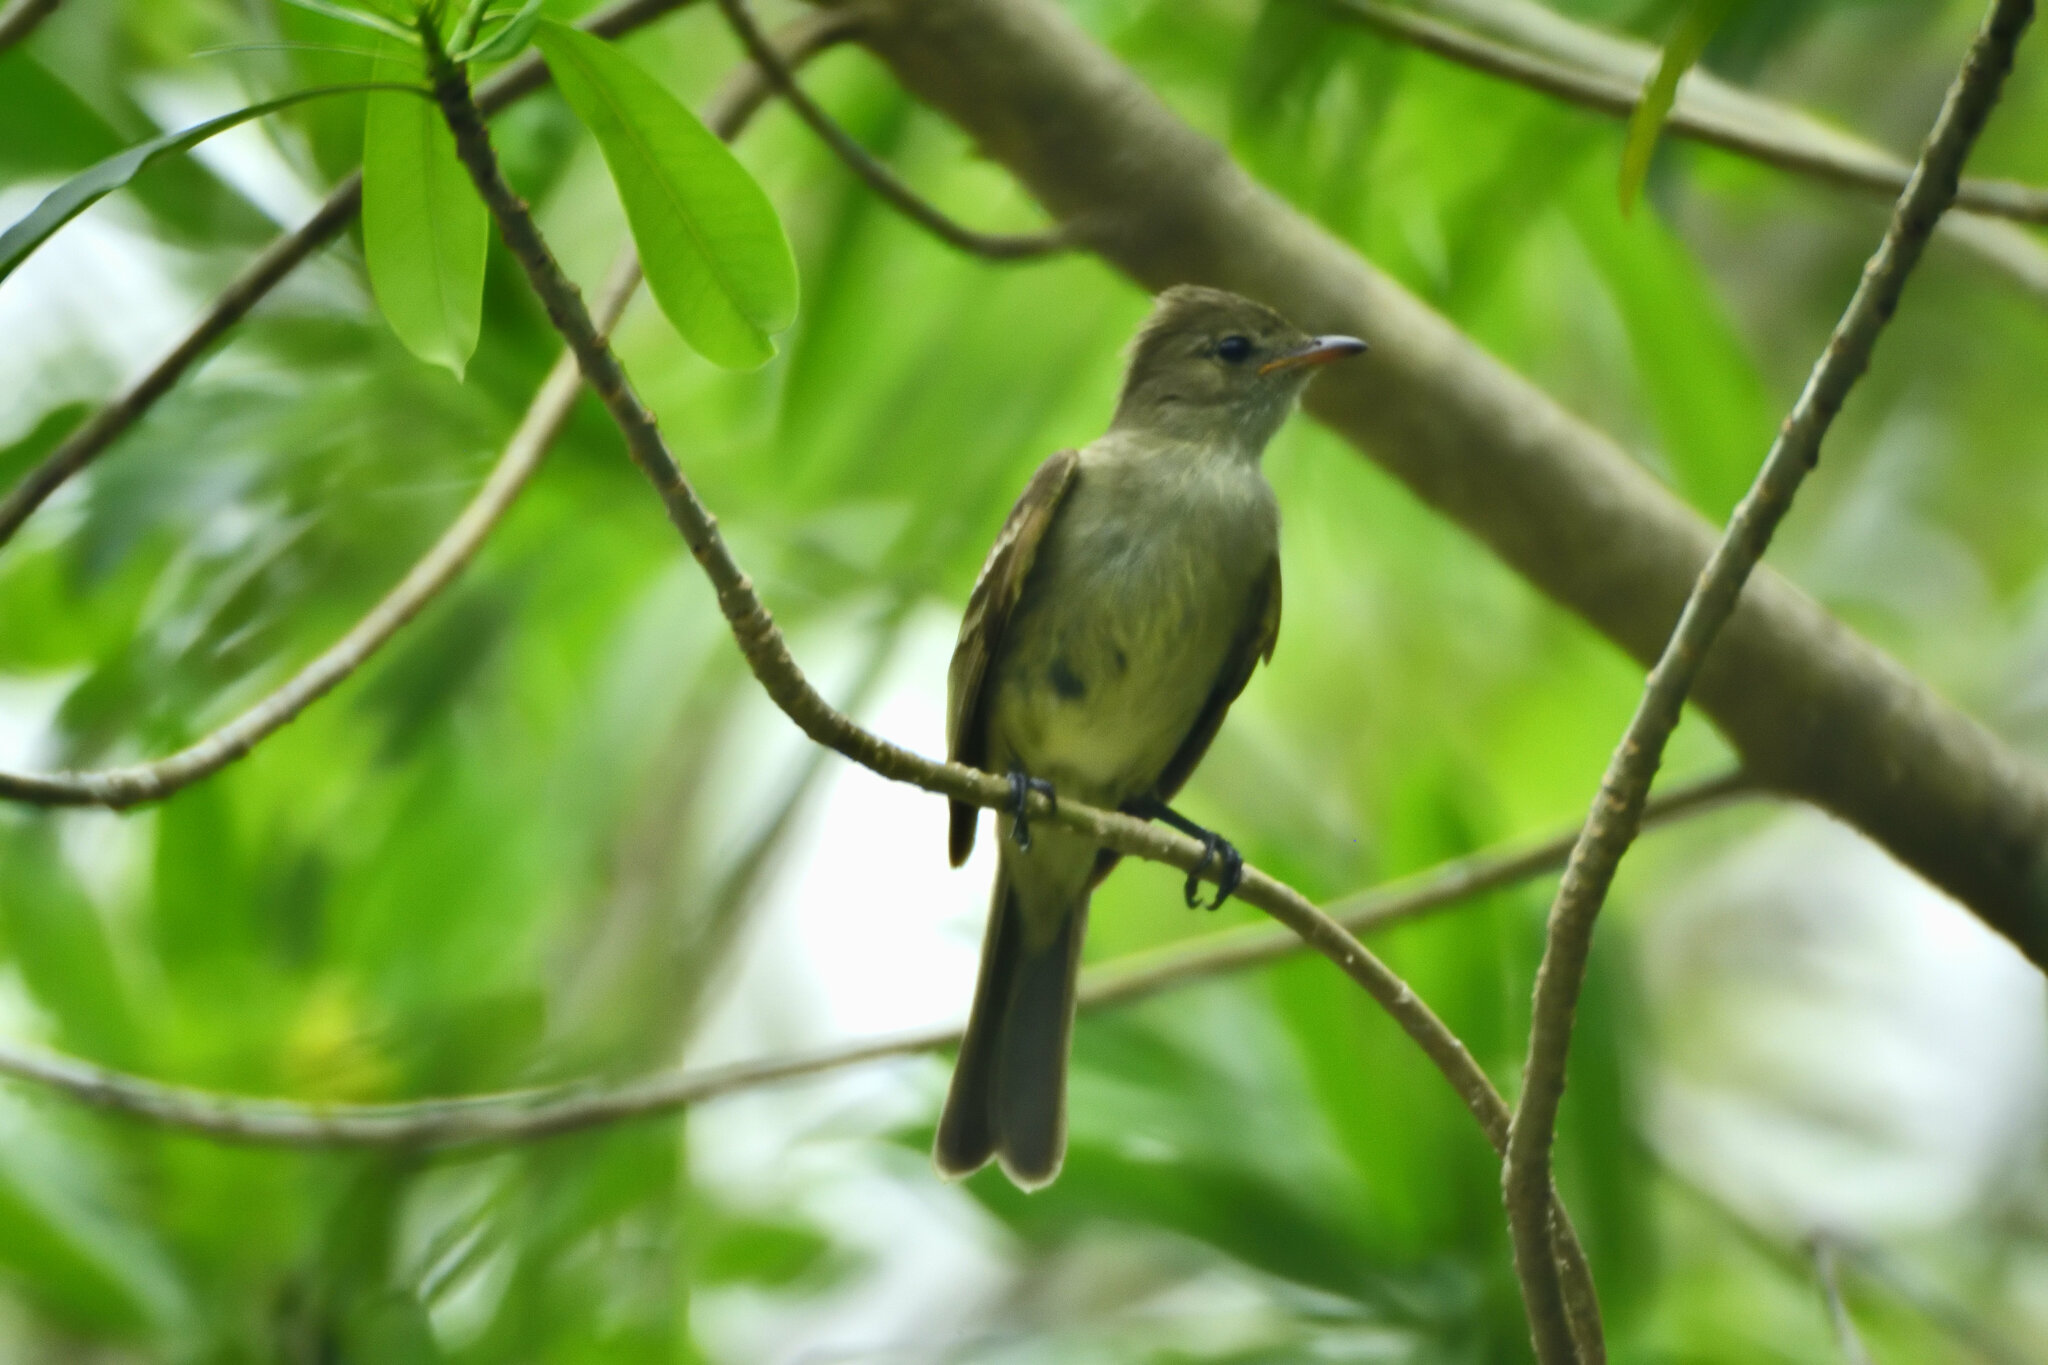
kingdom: Animalia
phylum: Chordata
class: Aves
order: Passeriformes
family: Tyrannidae
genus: Elaenia
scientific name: Elaenia martinica
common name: Caribbean elaenia
